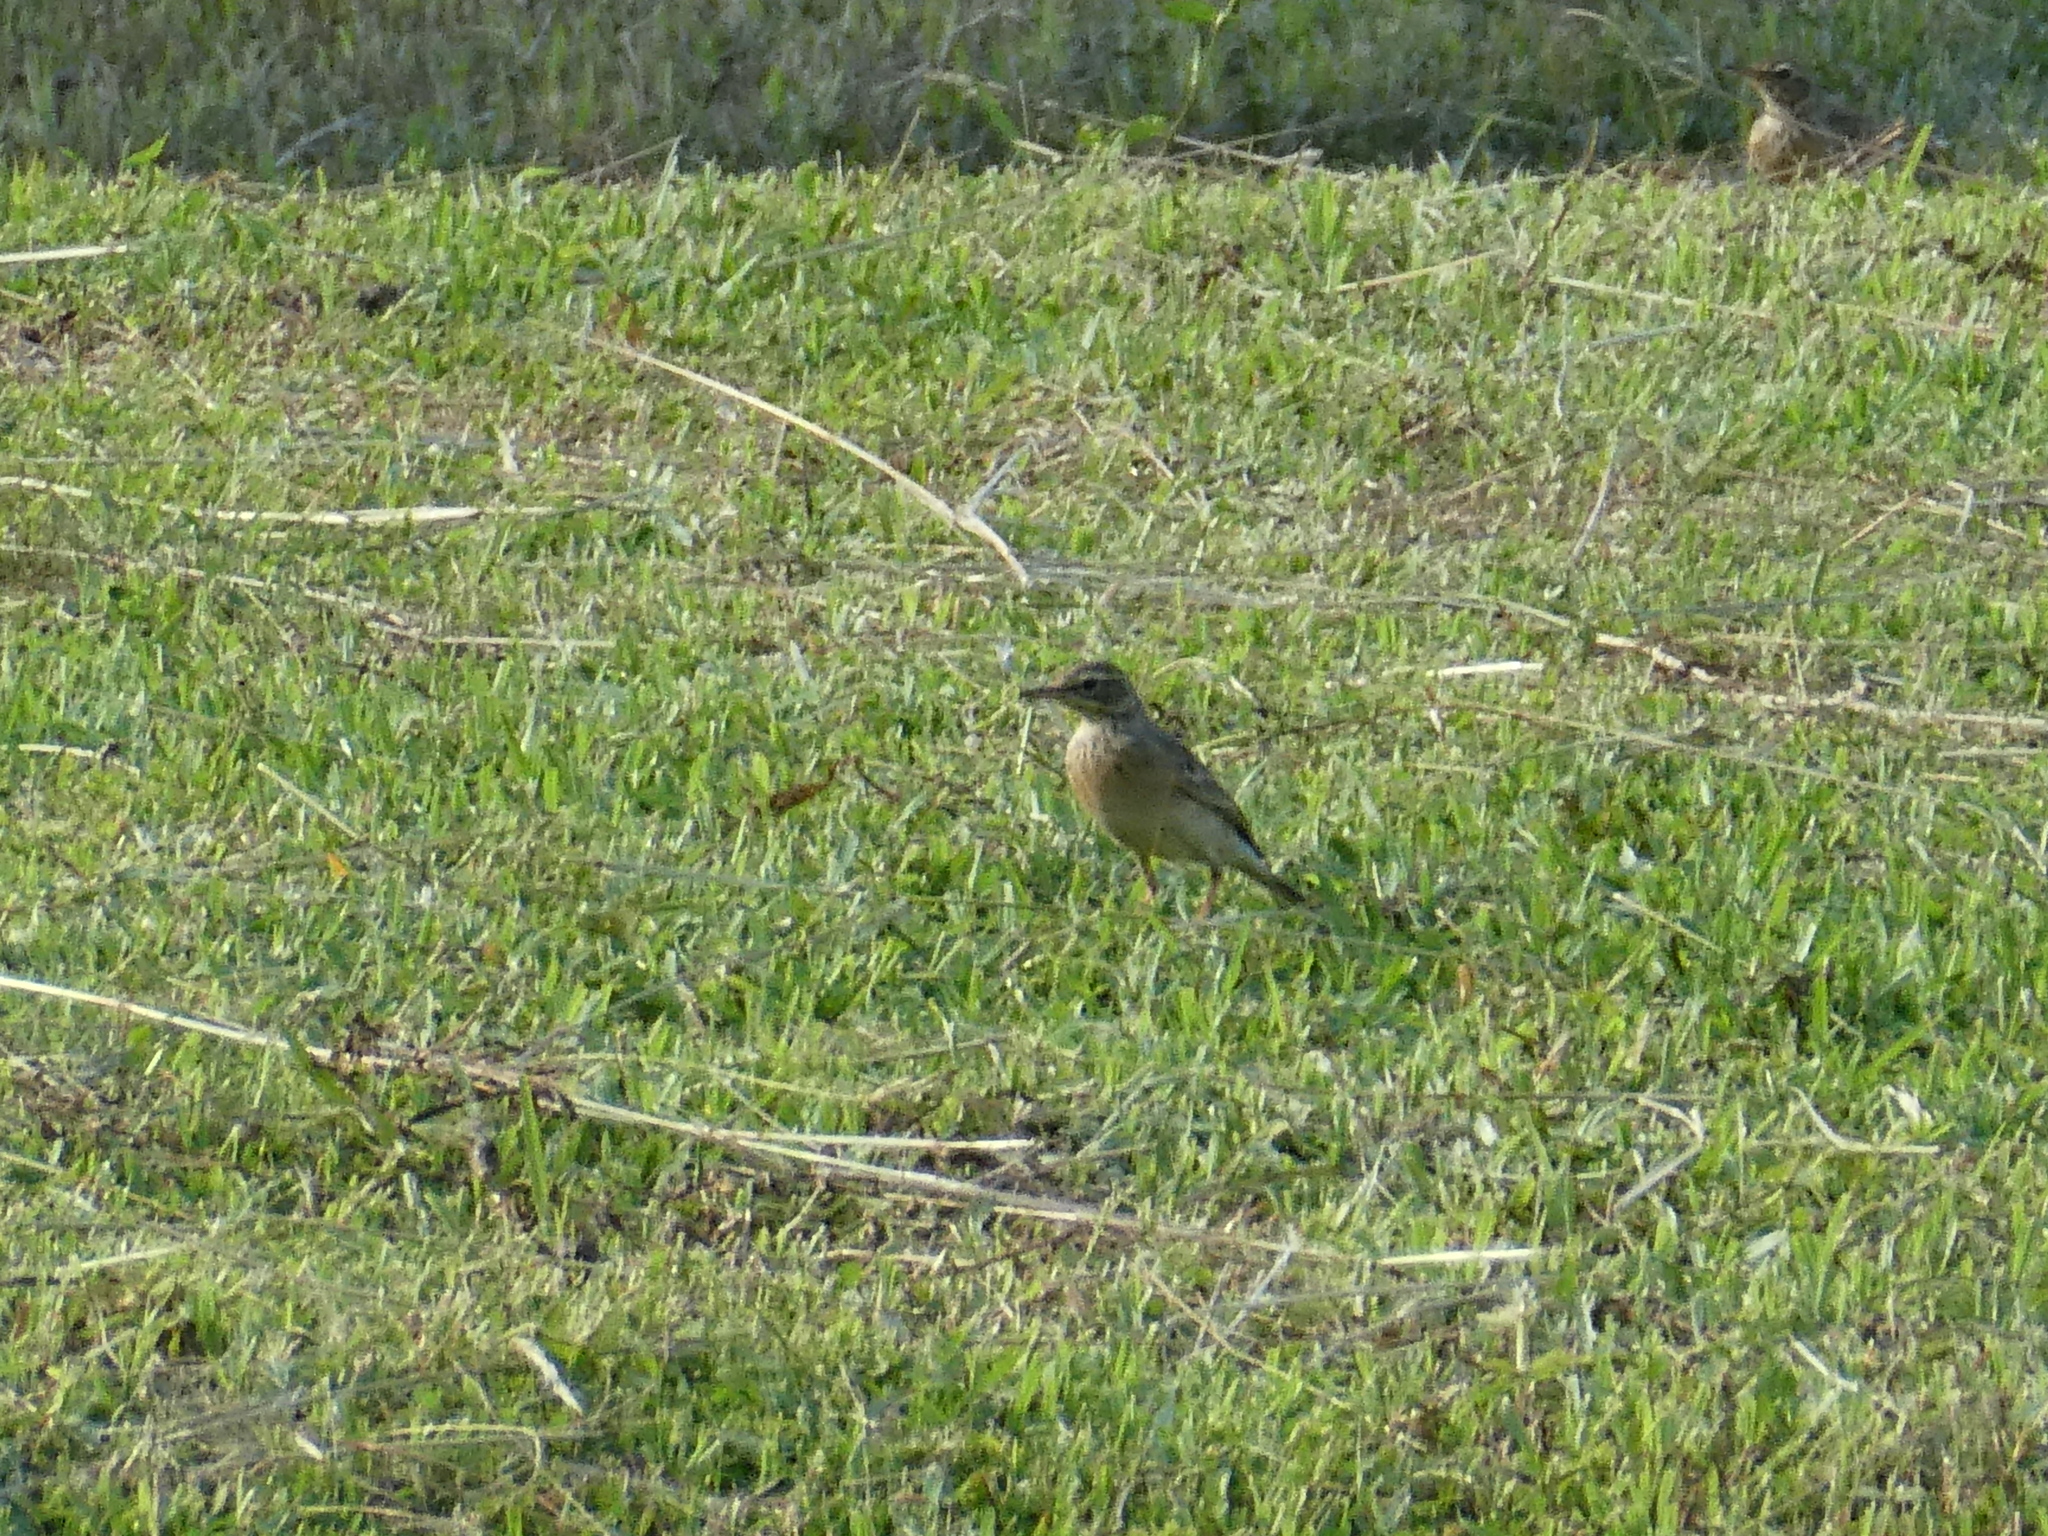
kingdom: Animalia
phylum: Chordata
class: Aves
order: Passeriformes
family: Motacillidae
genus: Anthus
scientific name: Anthus rufulus
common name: Paddyfield pipit
